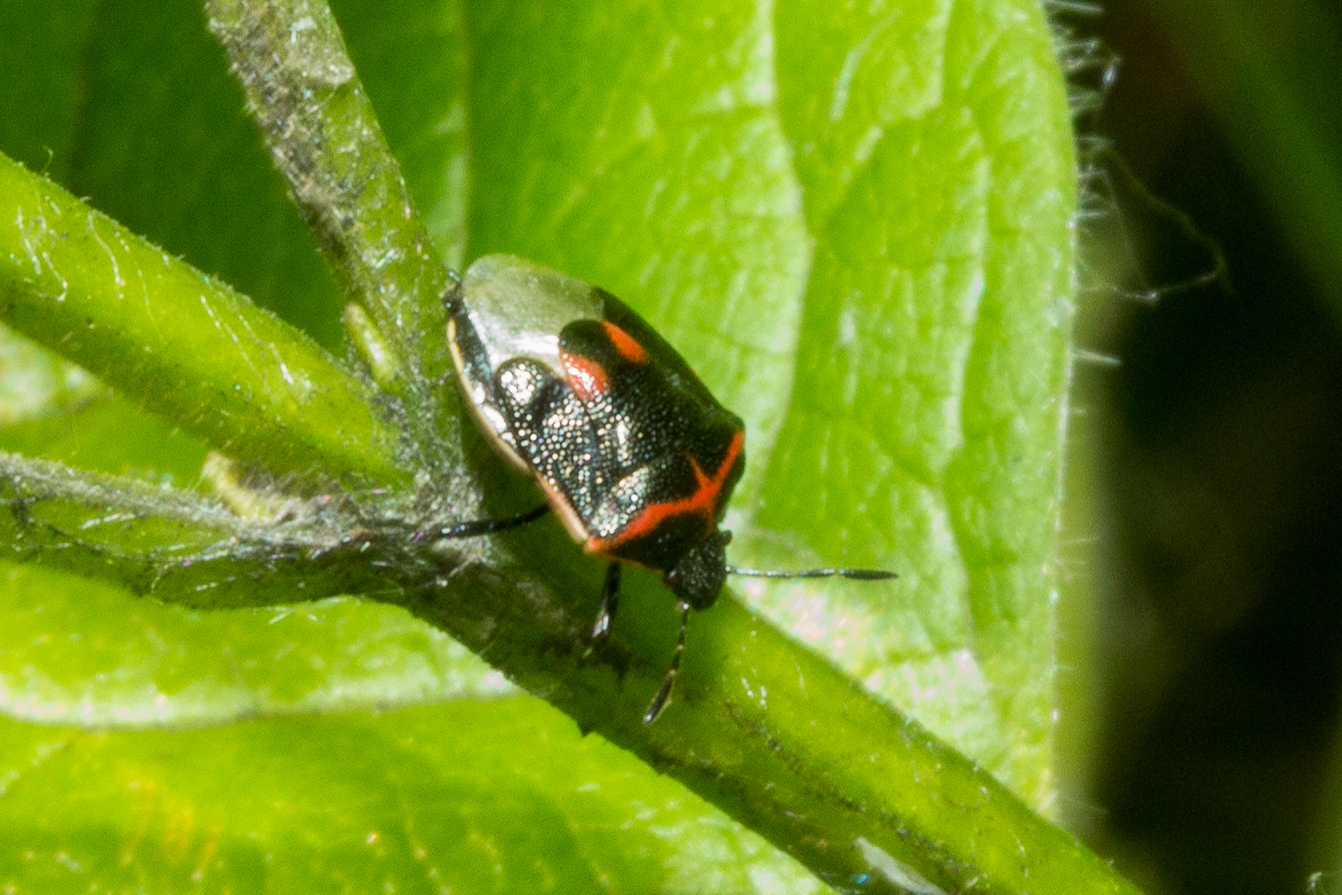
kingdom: Animalia
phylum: Arthropoda
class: Insecta
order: Hemiptera
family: Pentatomidae
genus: Cosmopepla
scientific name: Cosmopepla lintneriana
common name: Twice-stabbed stink bug
